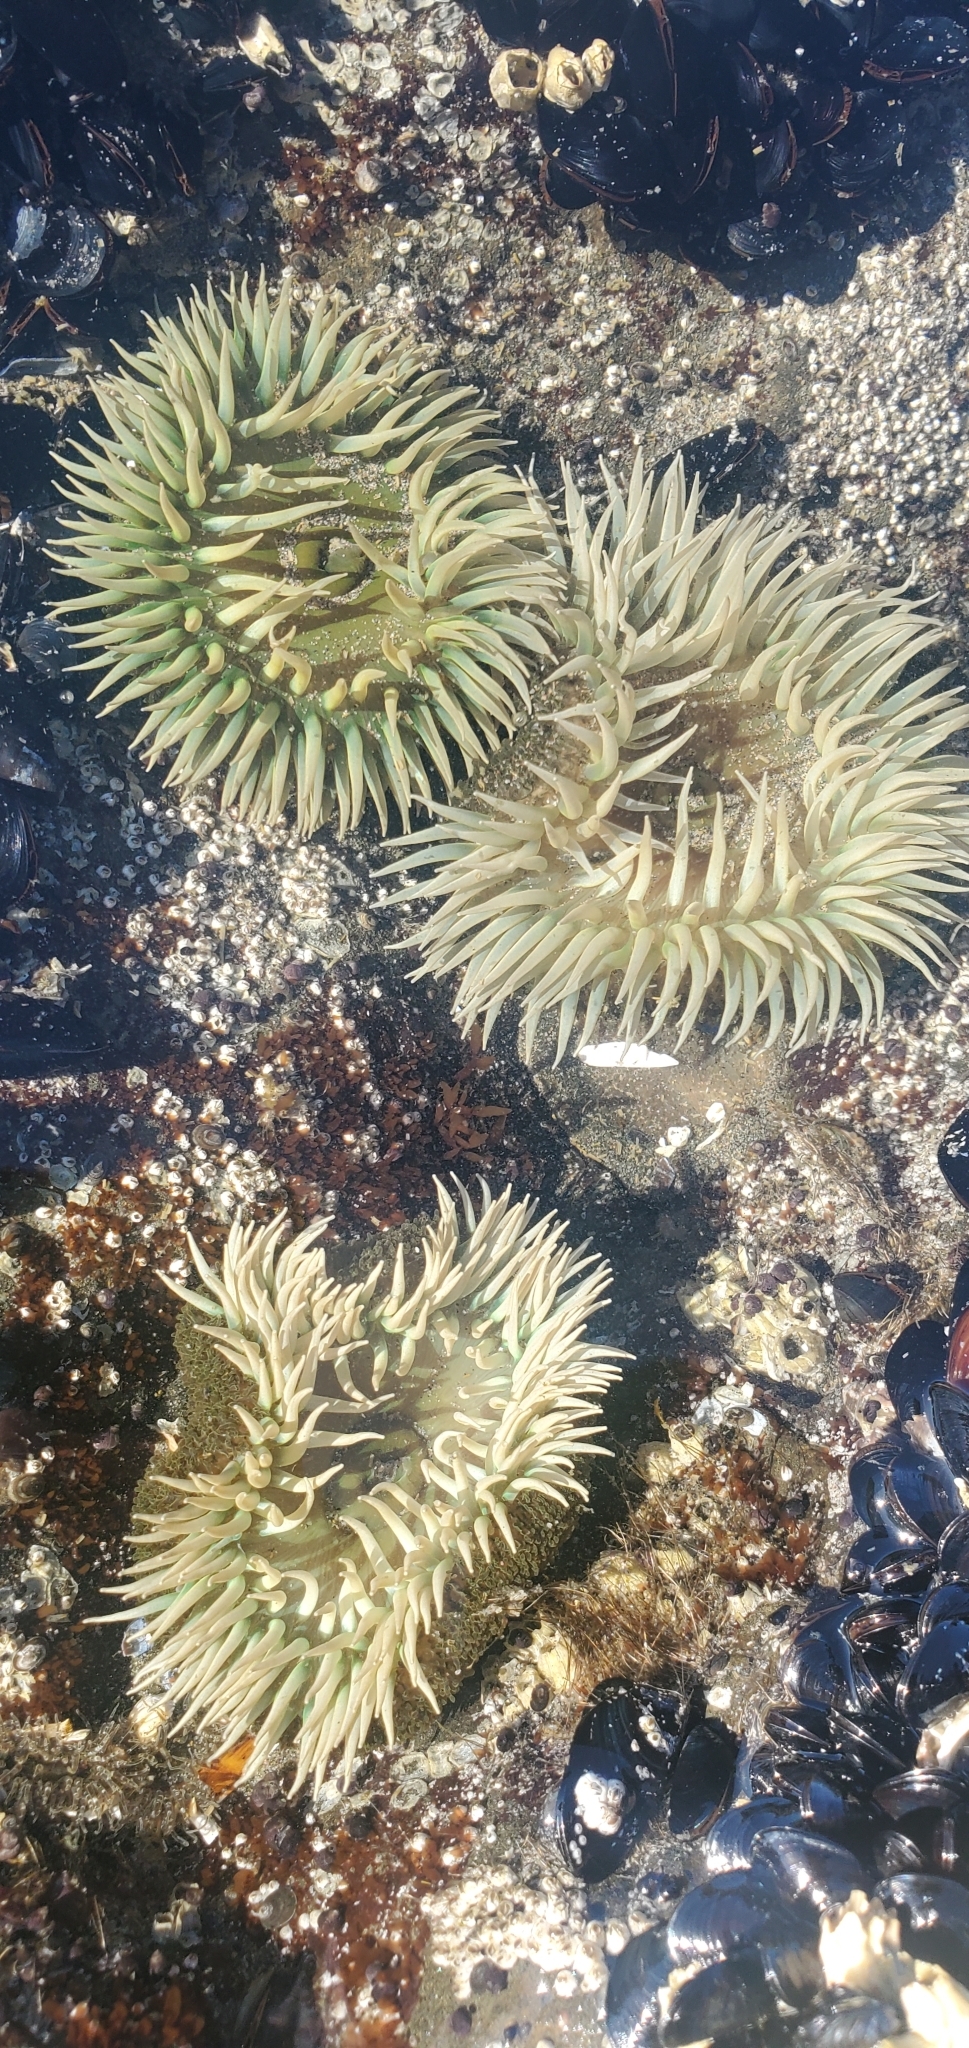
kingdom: Animalia
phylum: Cnidaria
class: Anthozoa
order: Actiniaria
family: Actiniidae
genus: Anthopleura
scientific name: Anthopleura xanthogrammica
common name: Giant green anemone
